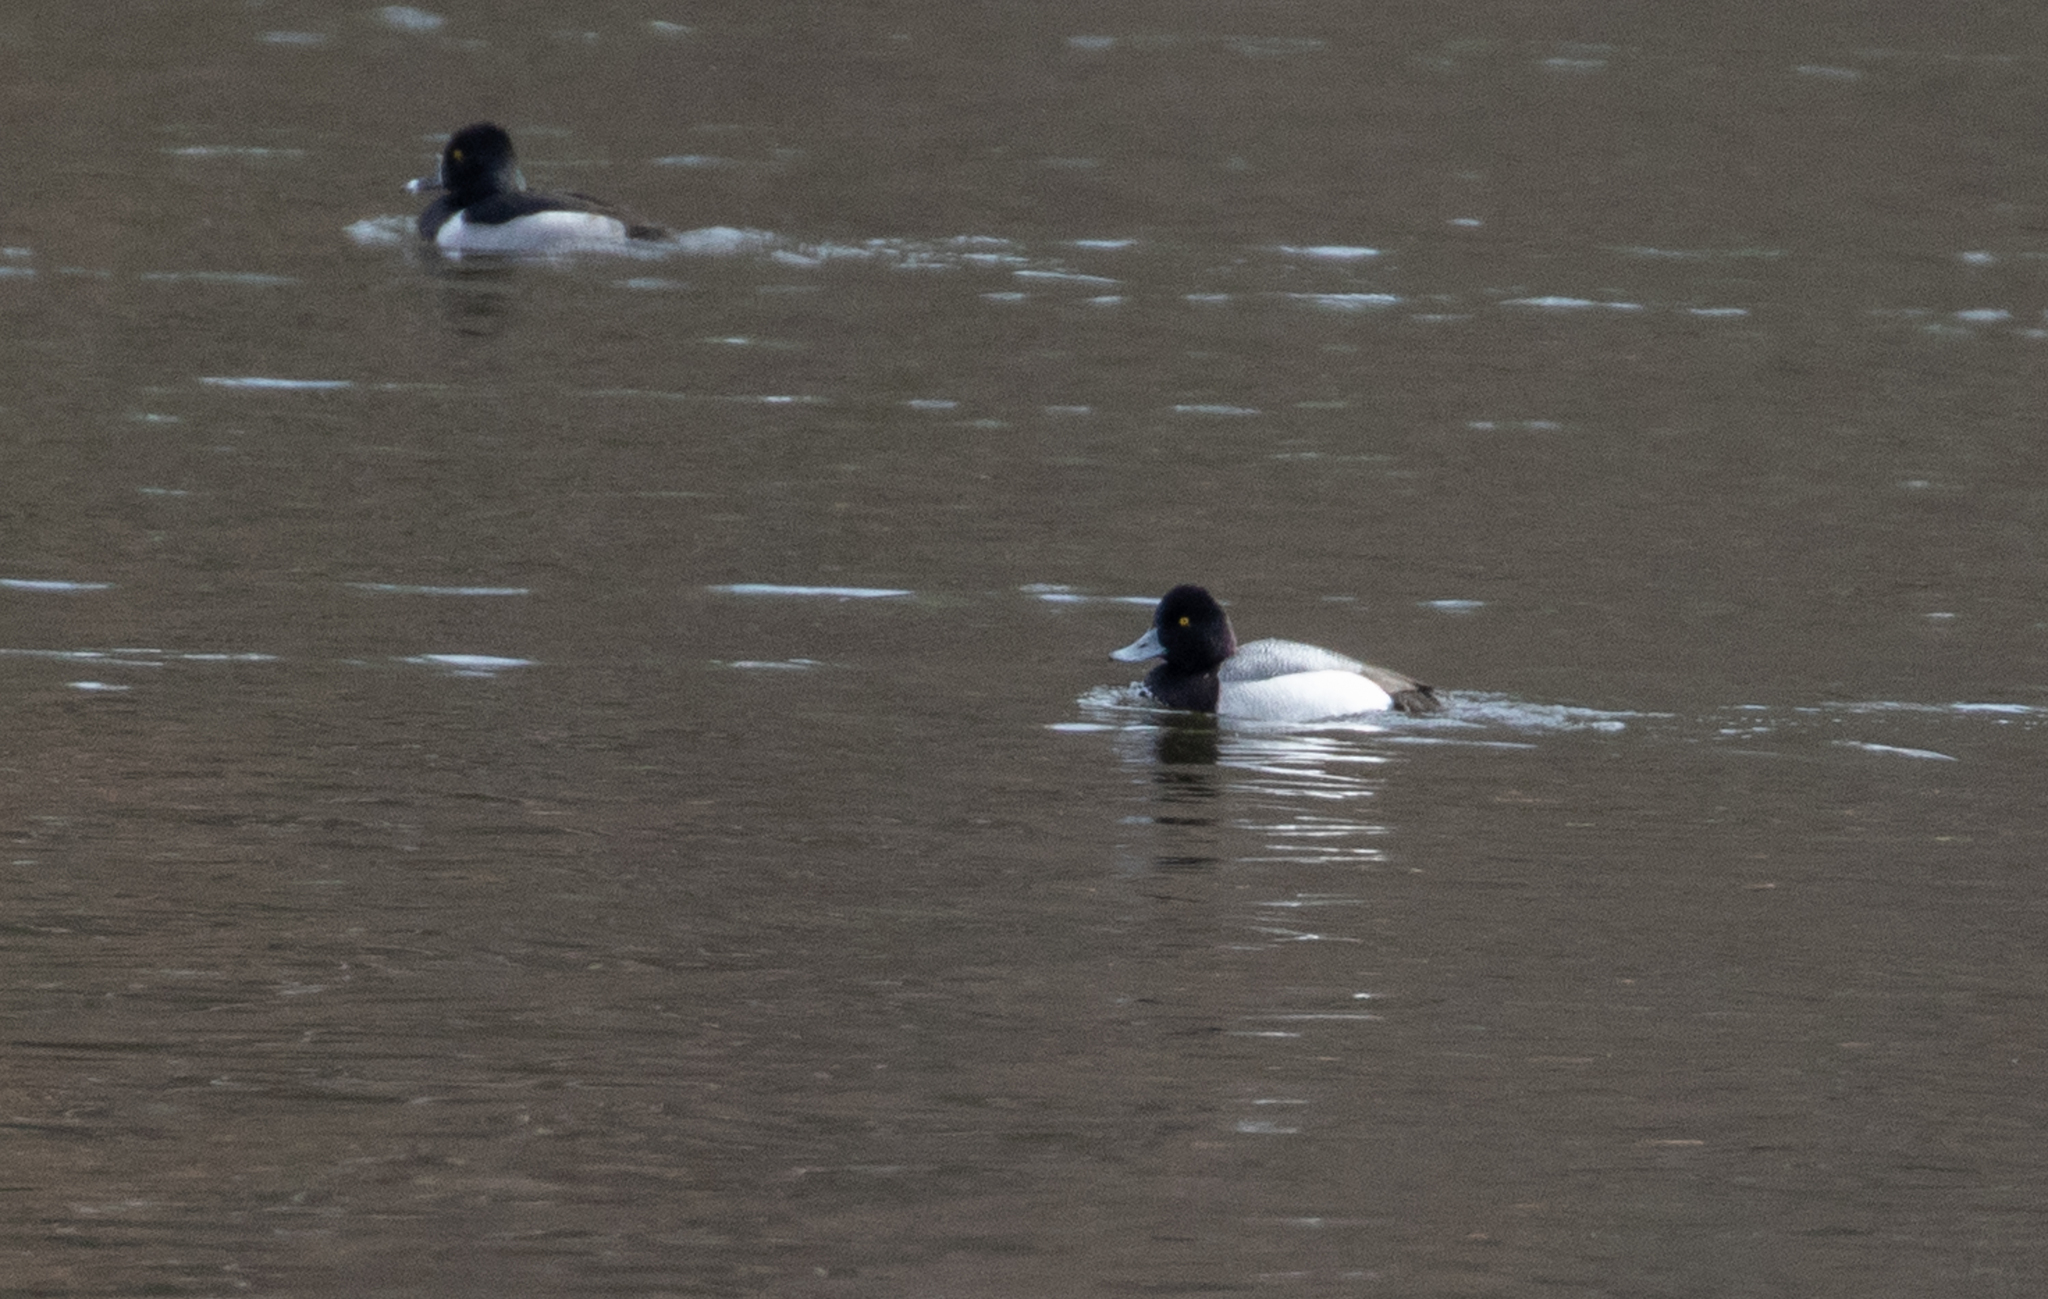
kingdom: Animalia
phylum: Chordata
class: Aves
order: Anseriformes
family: Anatidae
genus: Aythya
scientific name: Aythya affinis
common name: Lesser scaup
